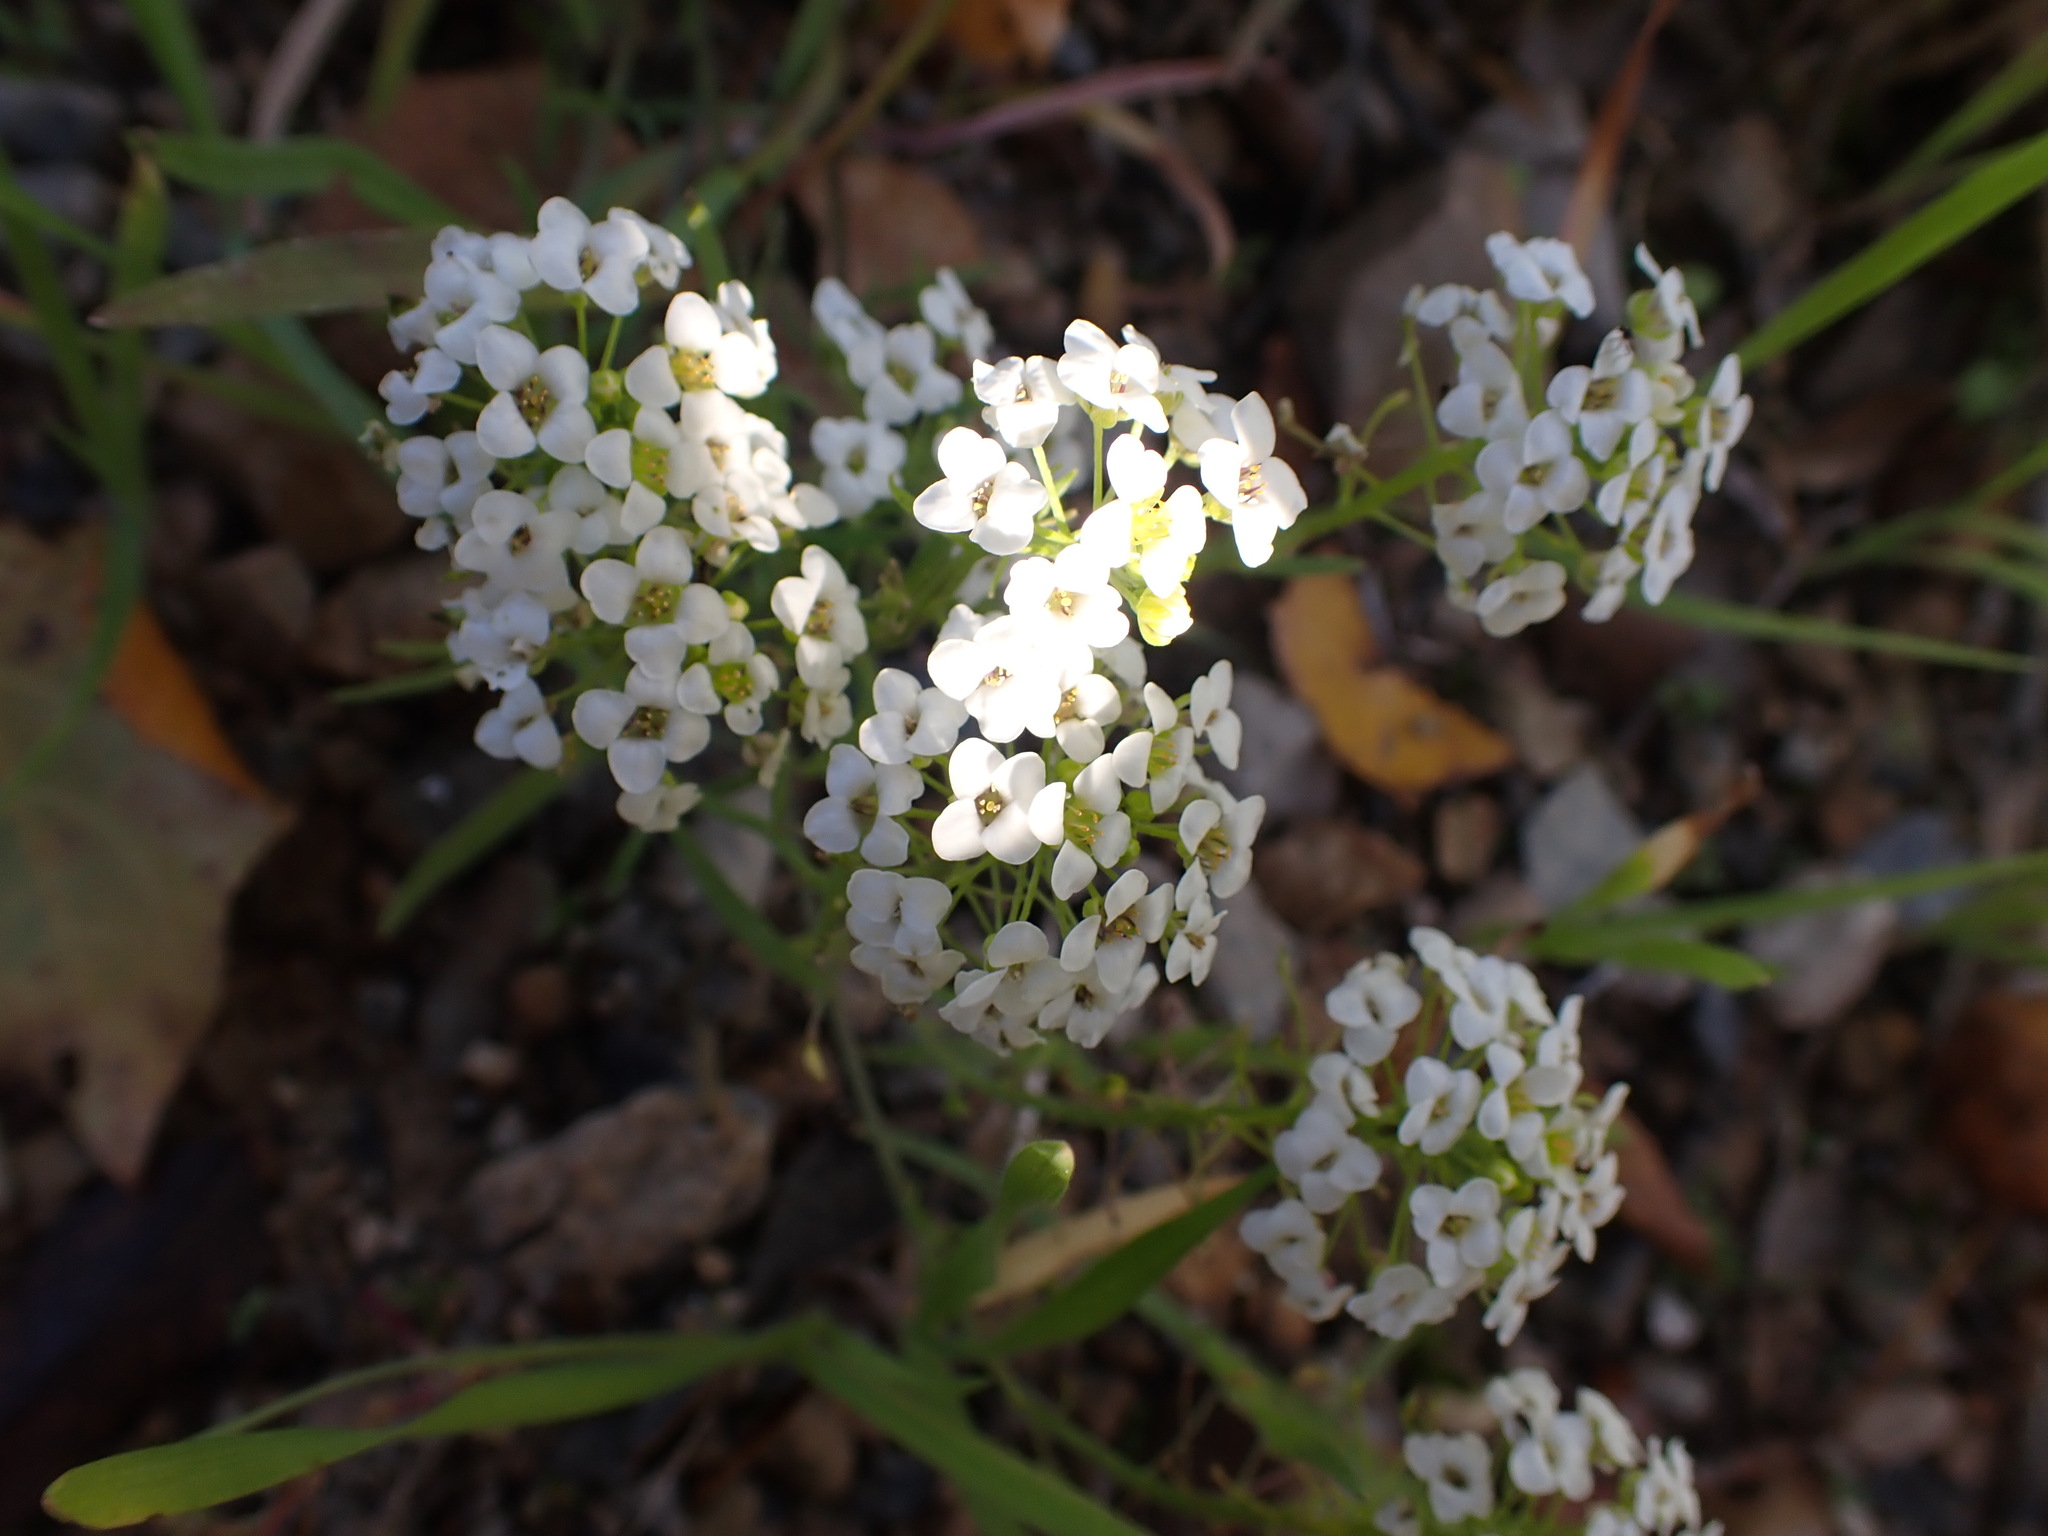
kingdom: Plantae
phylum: Tracheophyta
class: Magnoliopsida
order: Brassicales
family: Brassicaceae
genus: Lobularia
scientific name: Lobularia maritima
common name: Sweet alison
